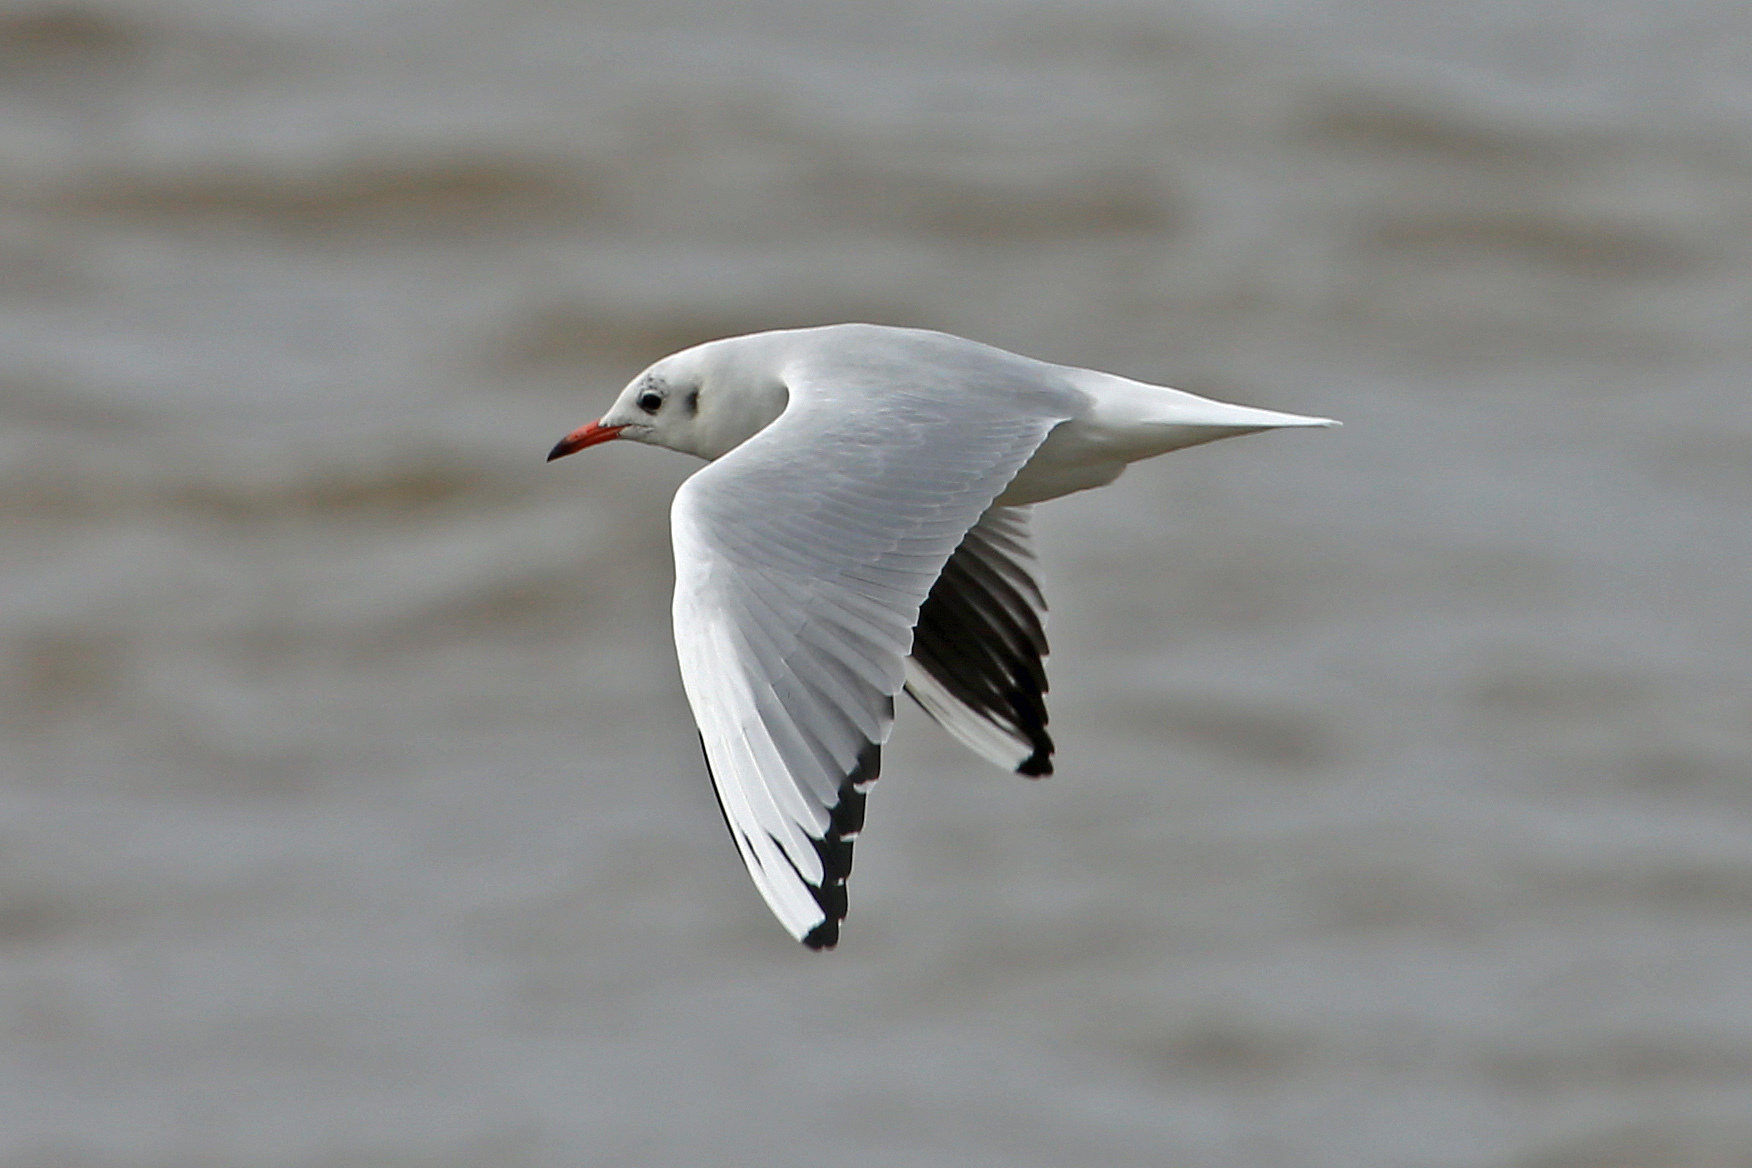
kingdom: Animalia
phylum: Chordata
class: Aves
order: Charadriiformes
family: Laridae
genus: Chroicocephalus
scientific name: Chroicocephalus ridibundus
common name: Black-headed gull
